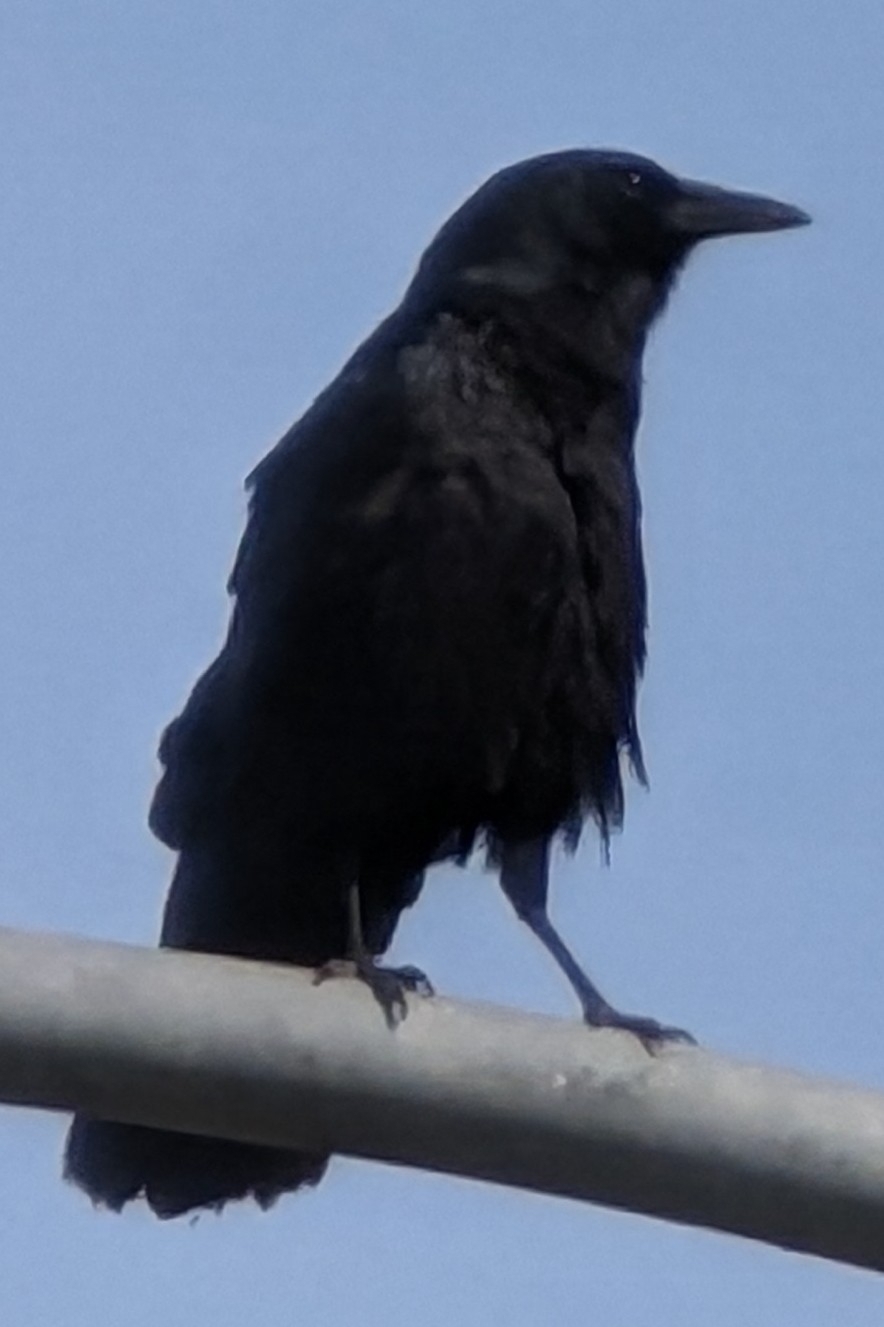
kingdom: Animalia
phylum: Chordata
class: Aves
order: Passeriformes
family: Corvidae
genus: Corvus
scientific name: Corvus brachyrhynchos
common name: American crow
